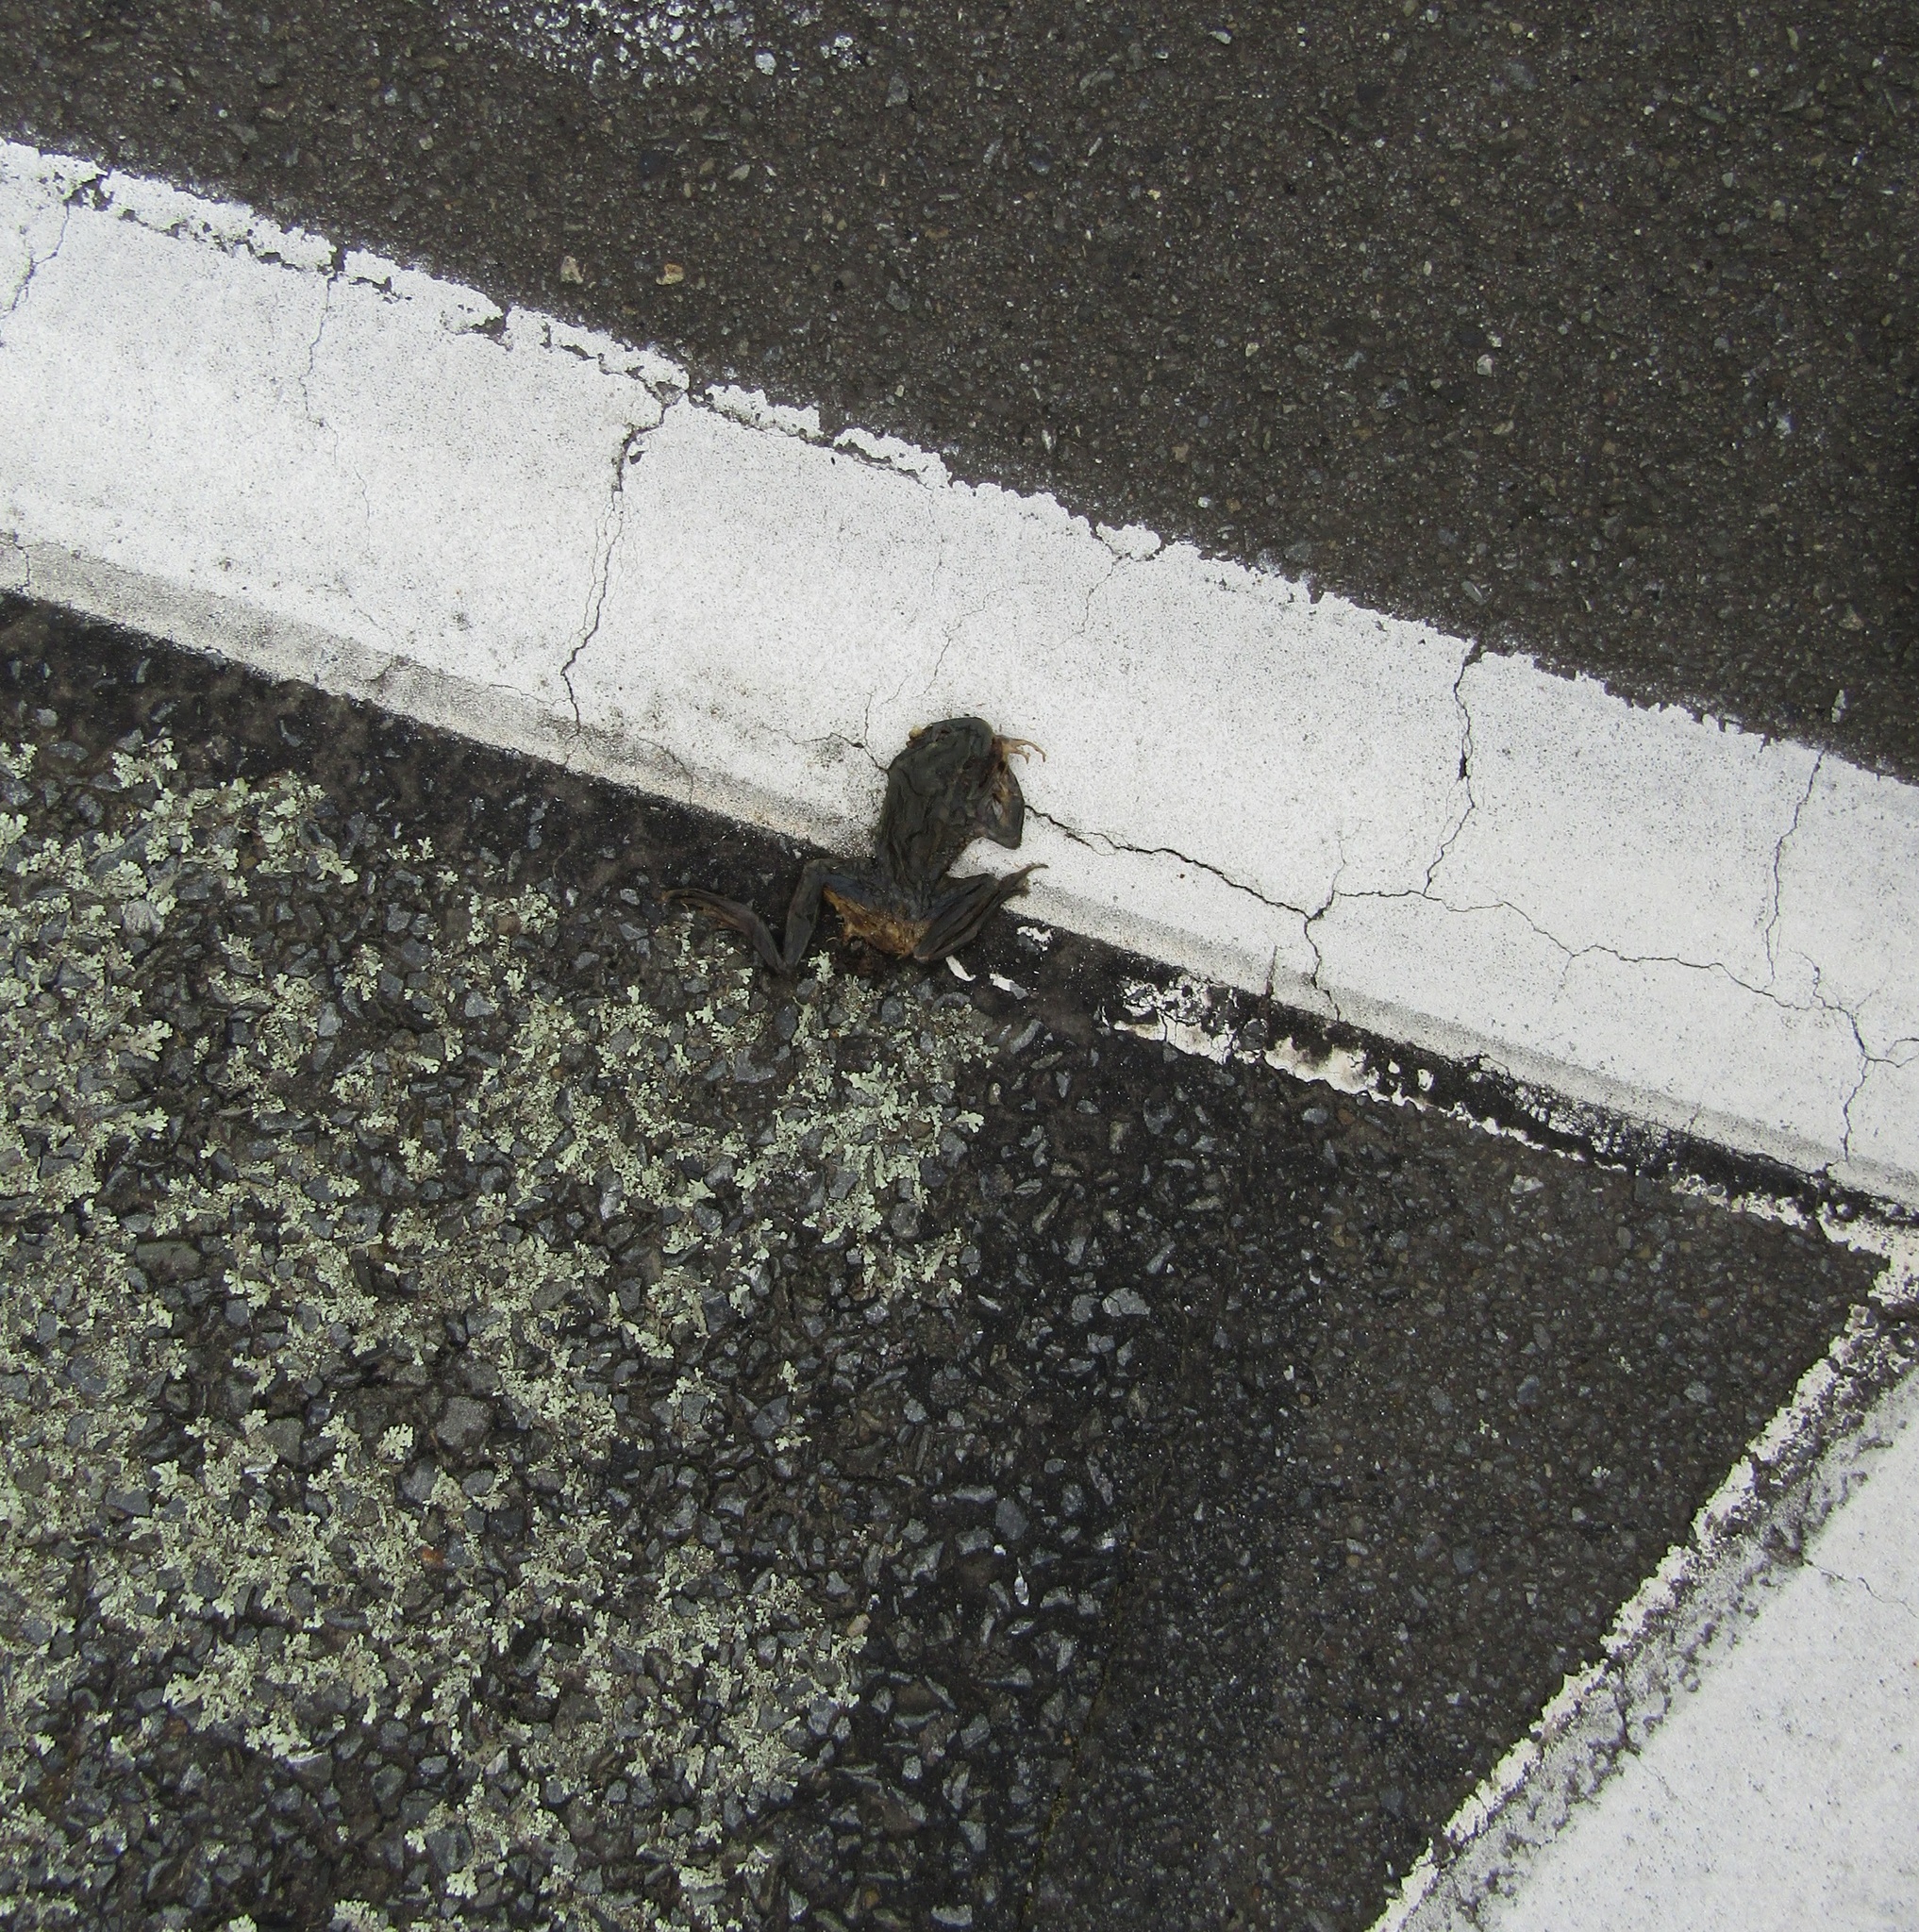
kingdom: Animalia
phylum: Chordata
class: Amphibia
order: Anura
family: Pelodryadidae
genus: Ranoidea
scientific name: Ranoidea raniformis
